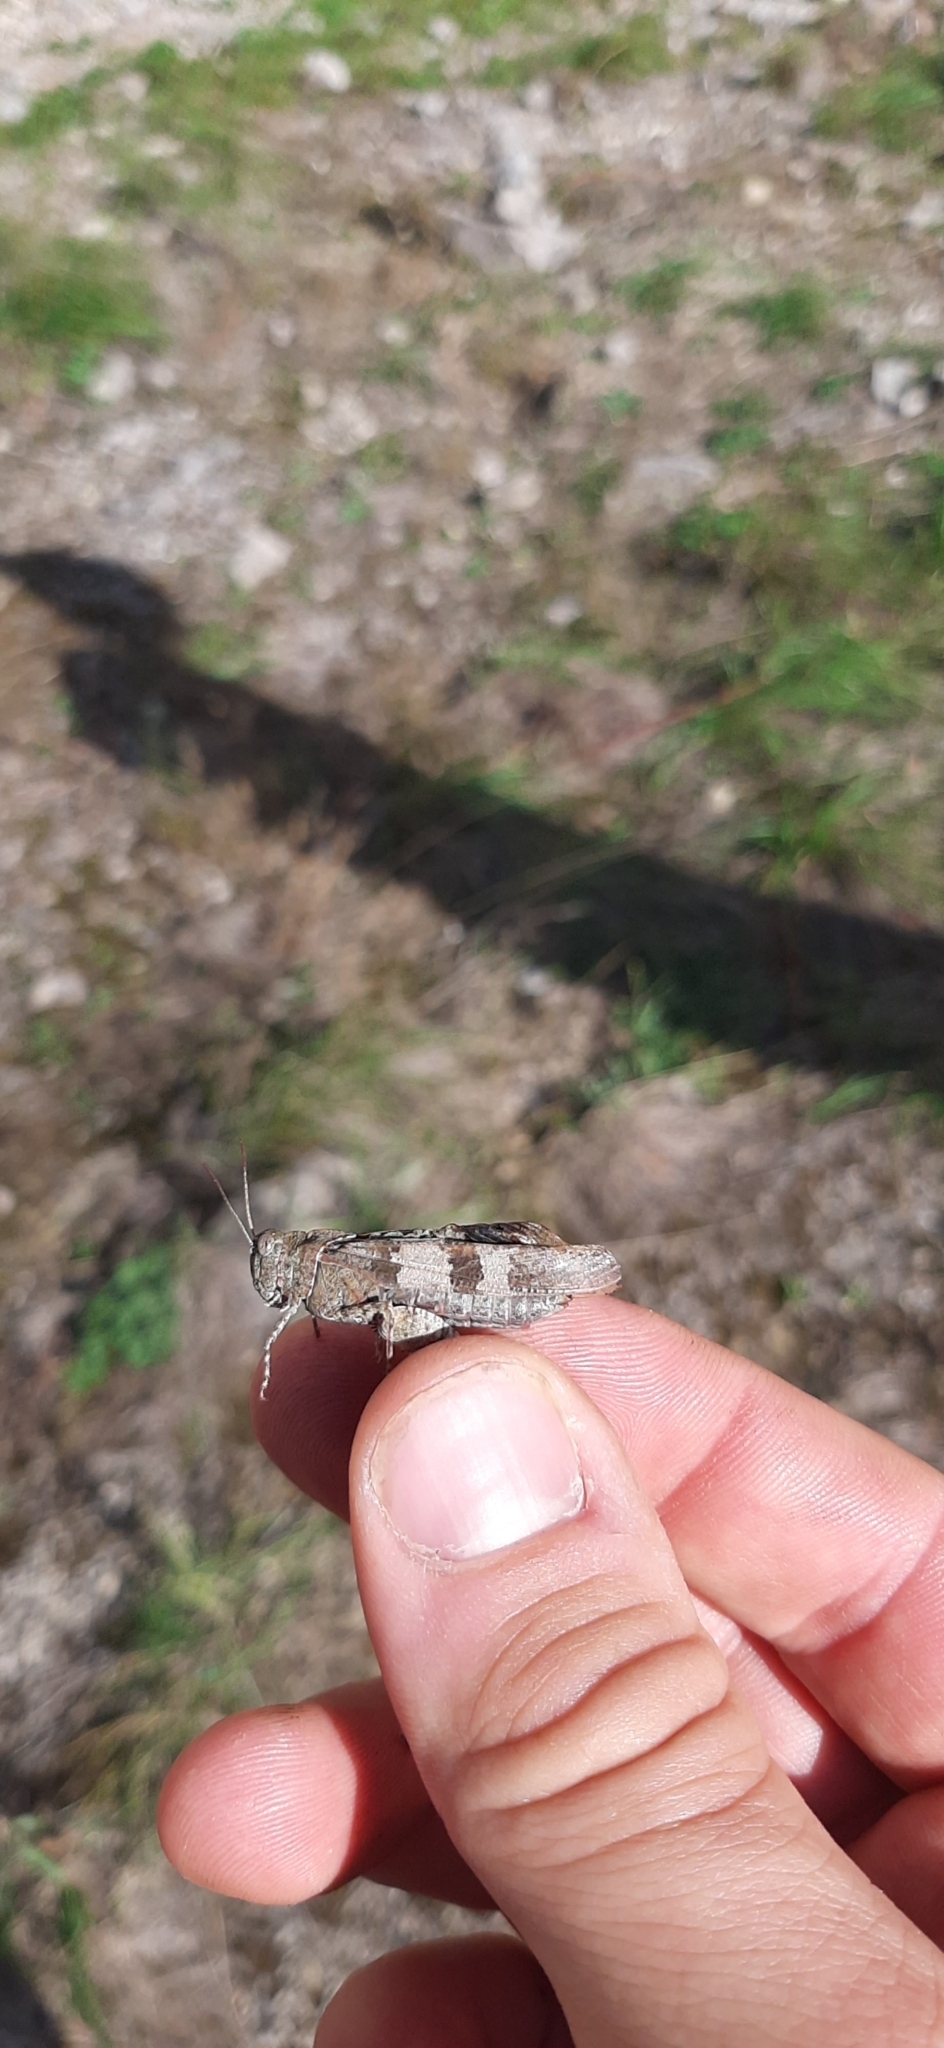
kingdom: Animalia
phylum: Arthropoda
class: Insecta
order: Orthoptera
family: Acrididae
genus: Oedipoda
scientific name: Oedipoda caerulescens
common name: Blue-winged grasshopper
